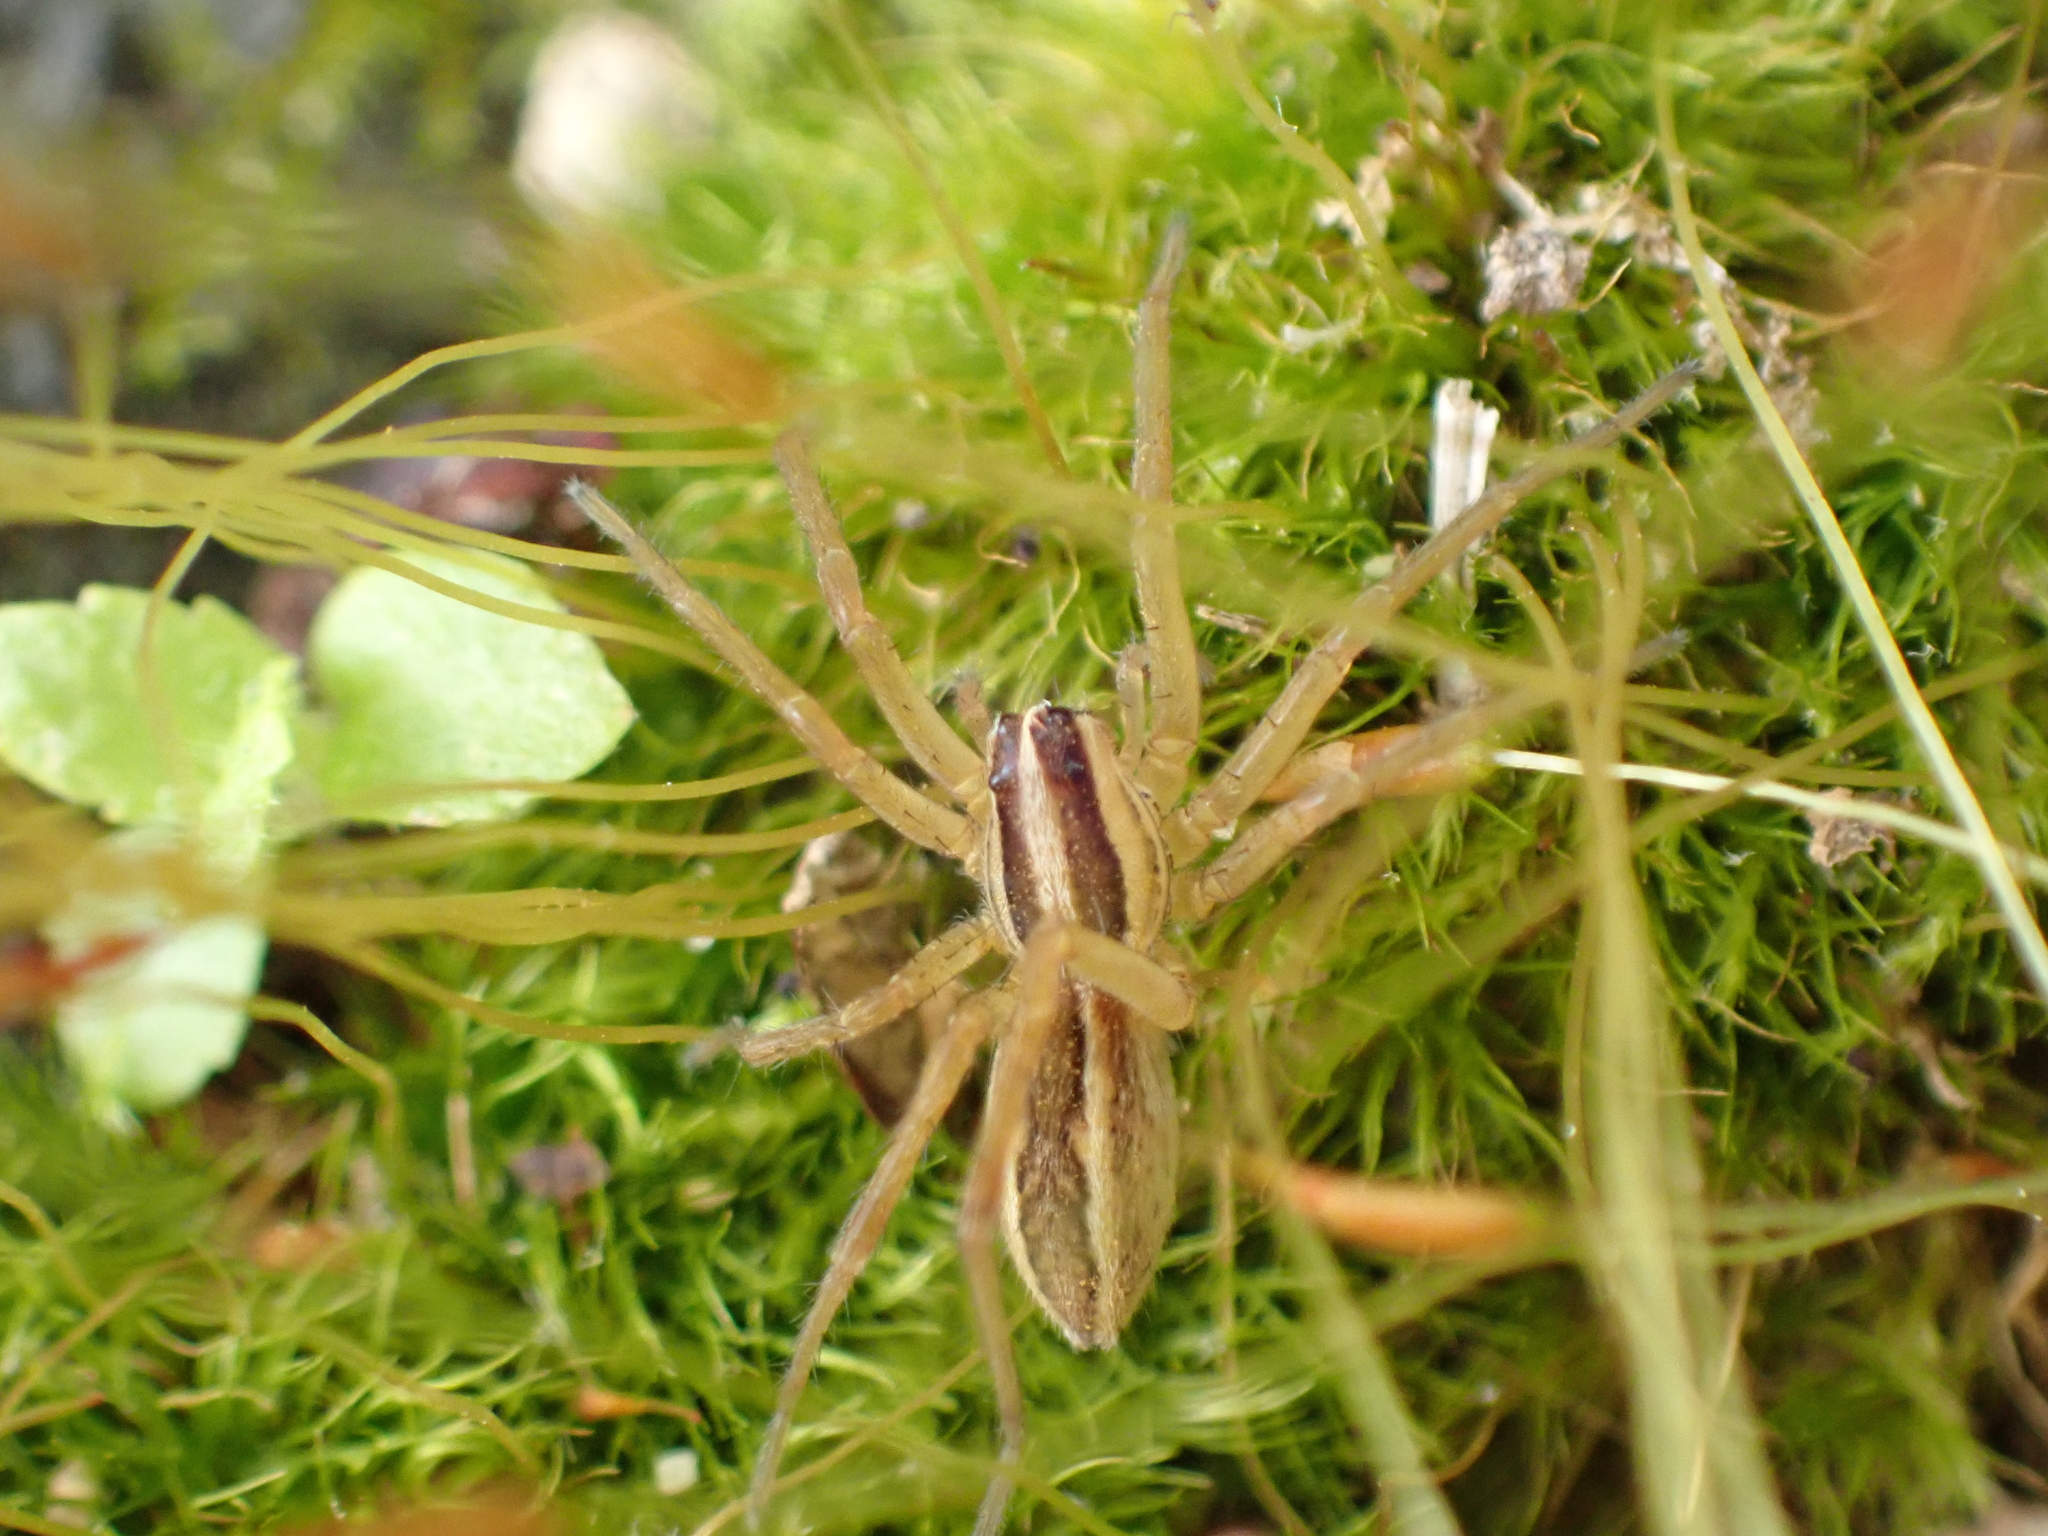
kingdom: Animalia
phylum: Arthropoda
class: Arachnida
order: Araneae
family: Lycosidae
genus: Rabidosa
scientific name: Rabidosa rabida
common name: Rabid wolf spider
